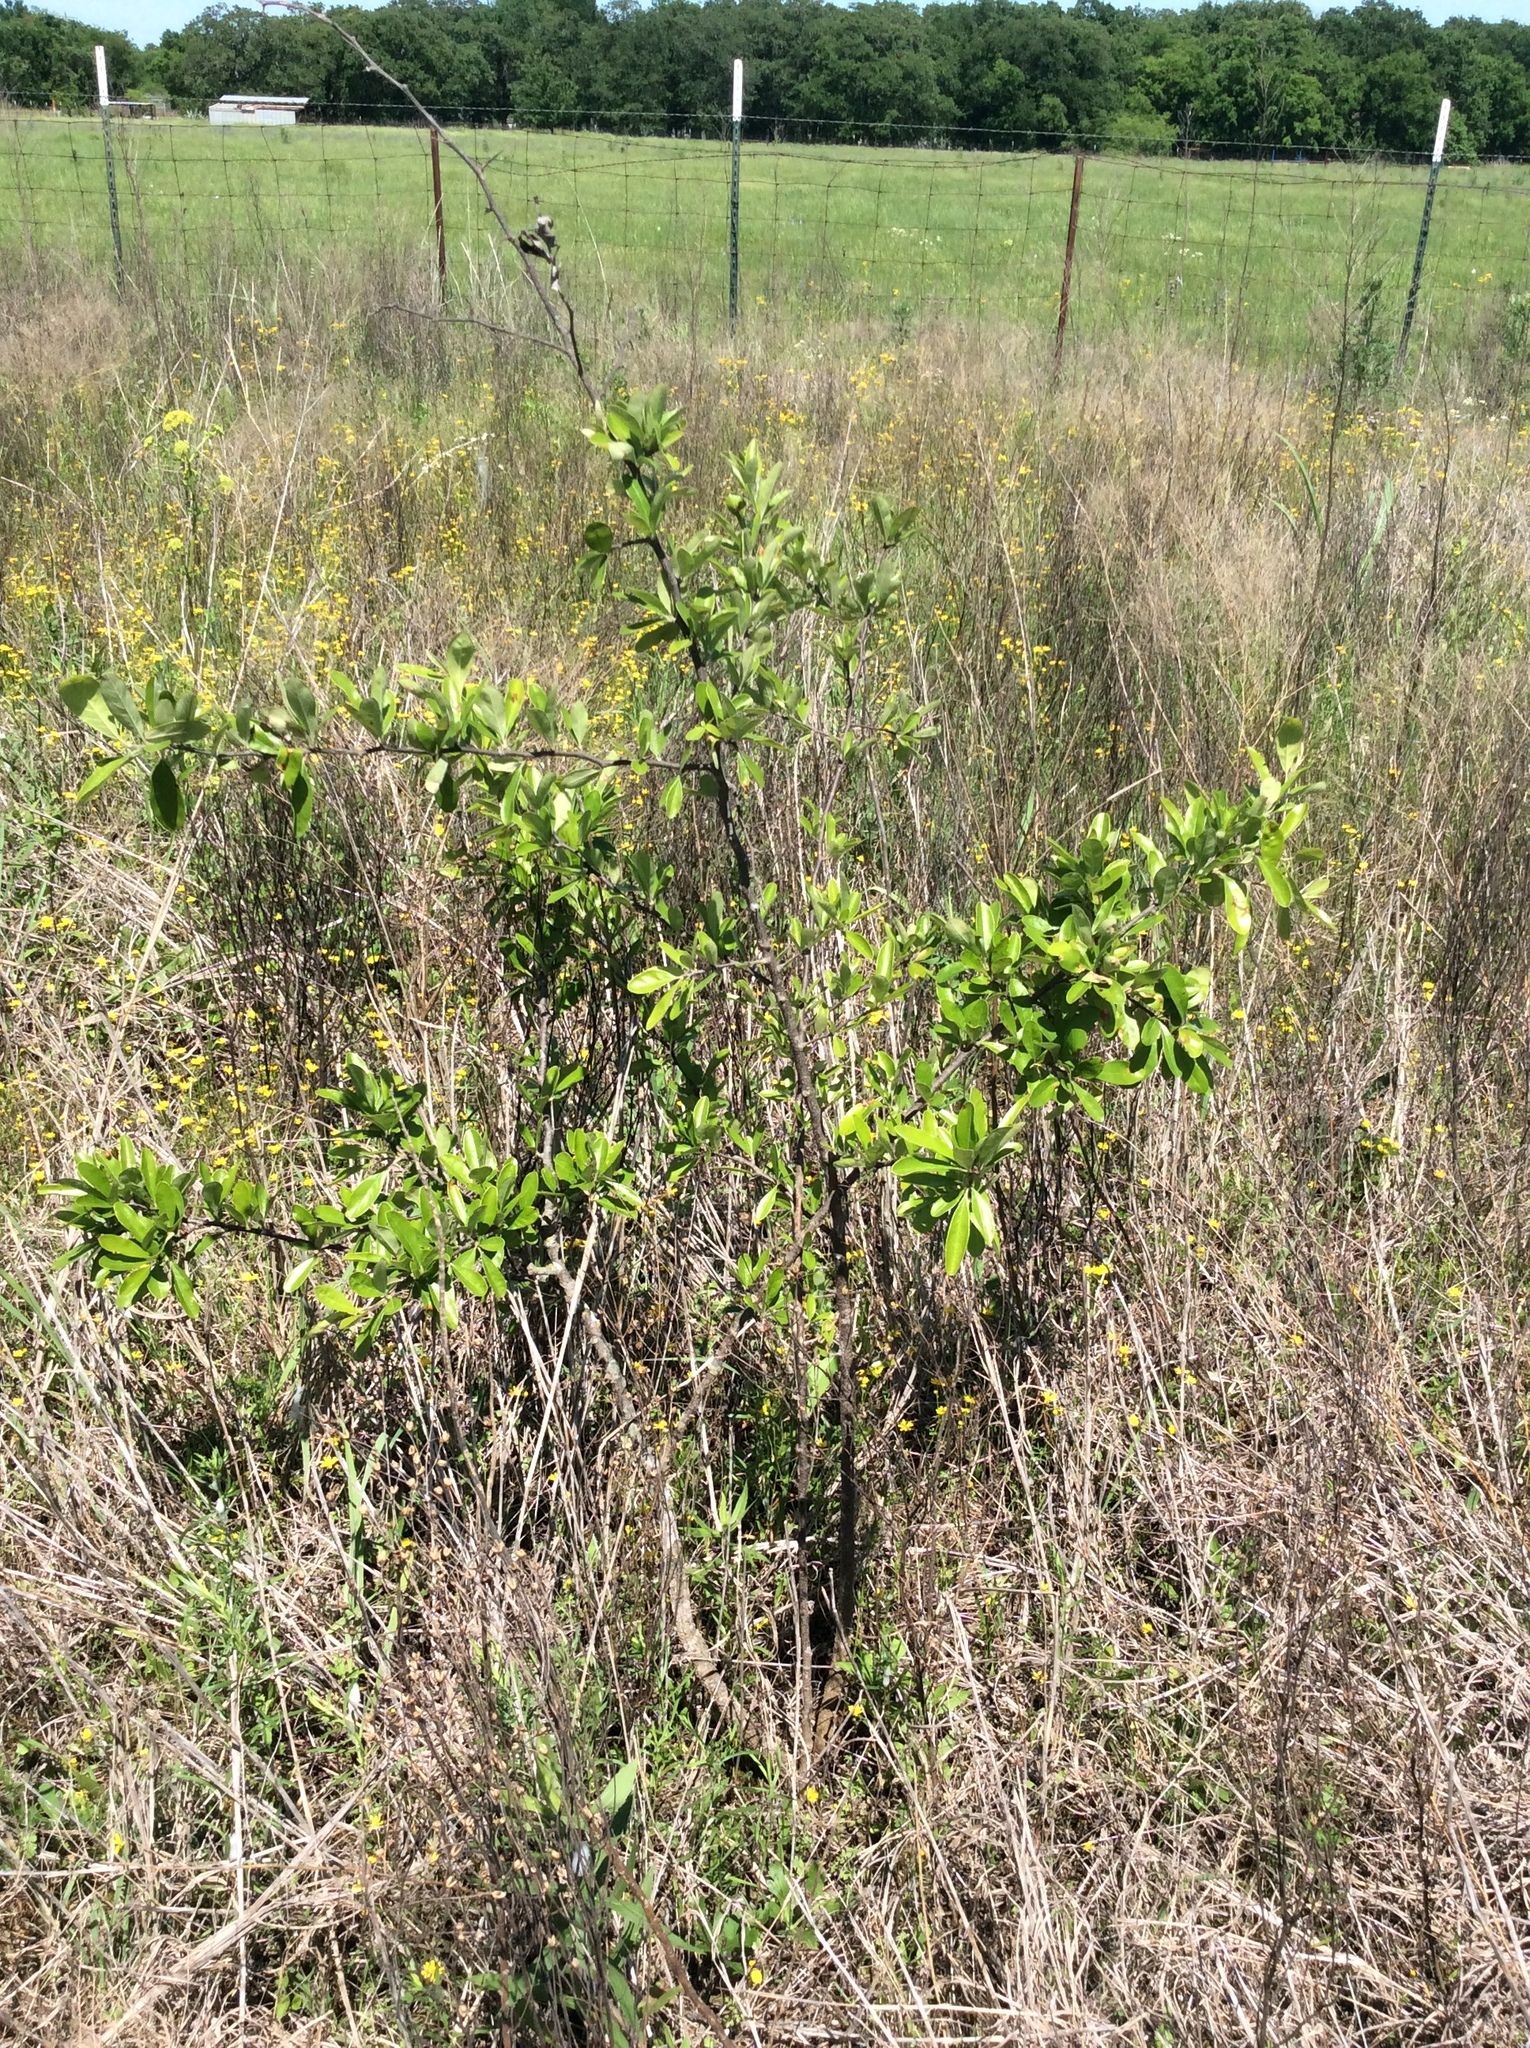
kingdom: Plantae
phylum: Tracheophyta
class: Magnoliopsida
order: Ericales
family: Sapotaceae
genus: Sideroxylon
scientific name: Sideroxylon lanuginosum
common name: Chittamwood
